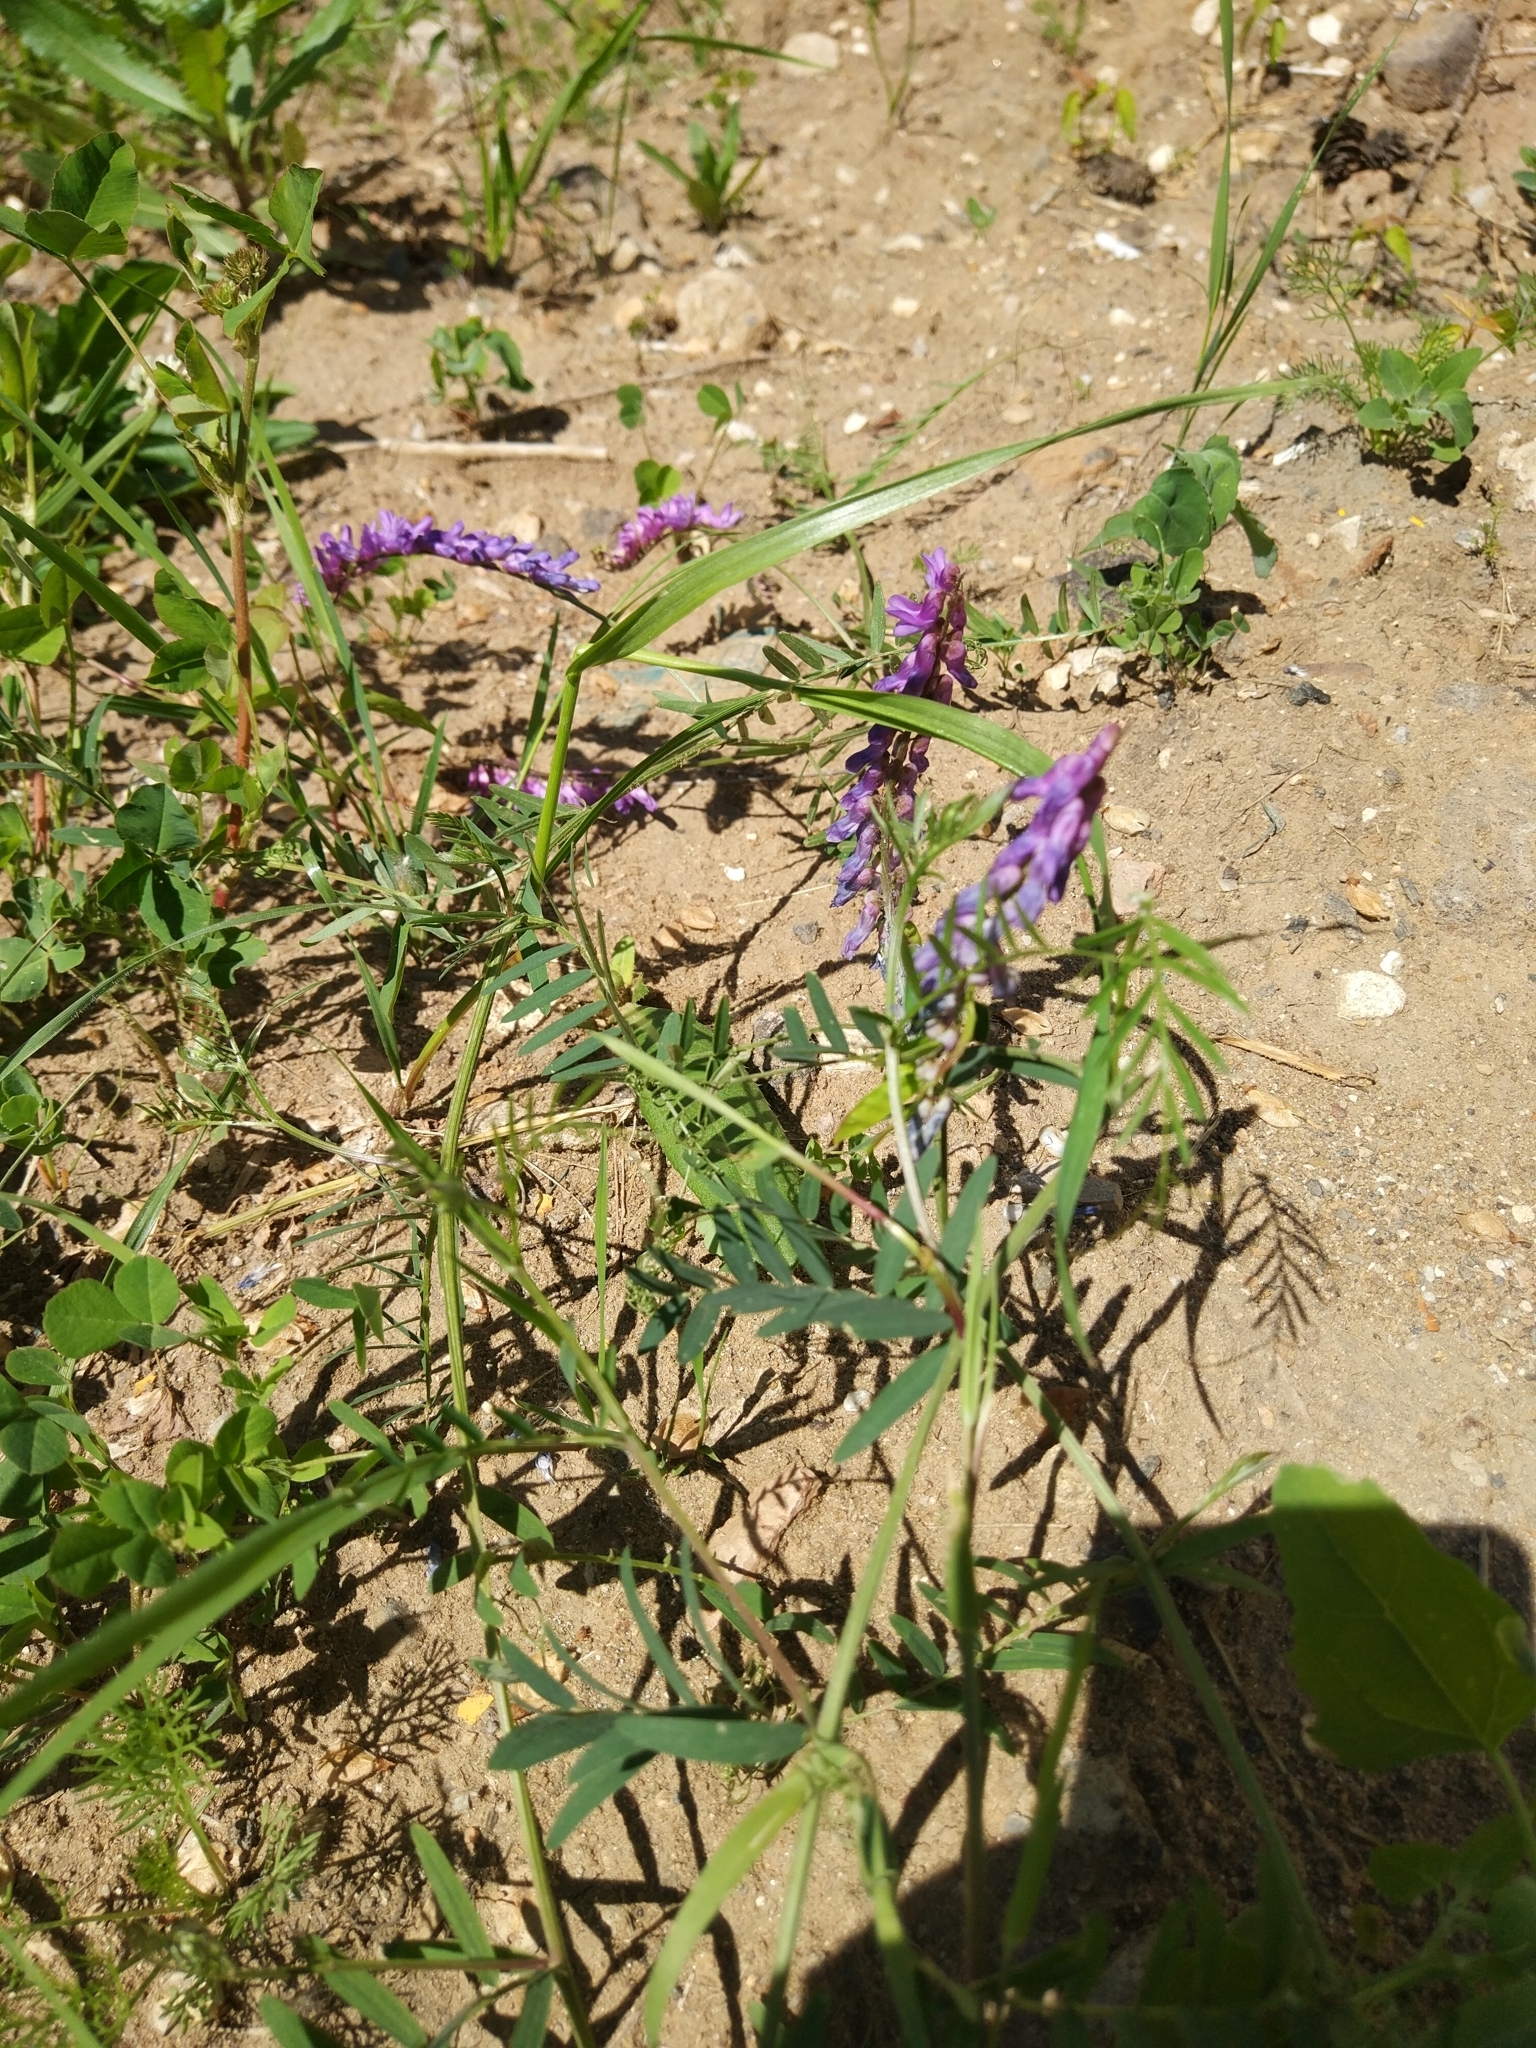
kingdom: Plantae
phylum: Tracheophyta
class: Magnoliopsida
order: Fabales
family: Fabaceae
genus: Vicia
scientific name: Vicia cracca
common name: Bird vetch
